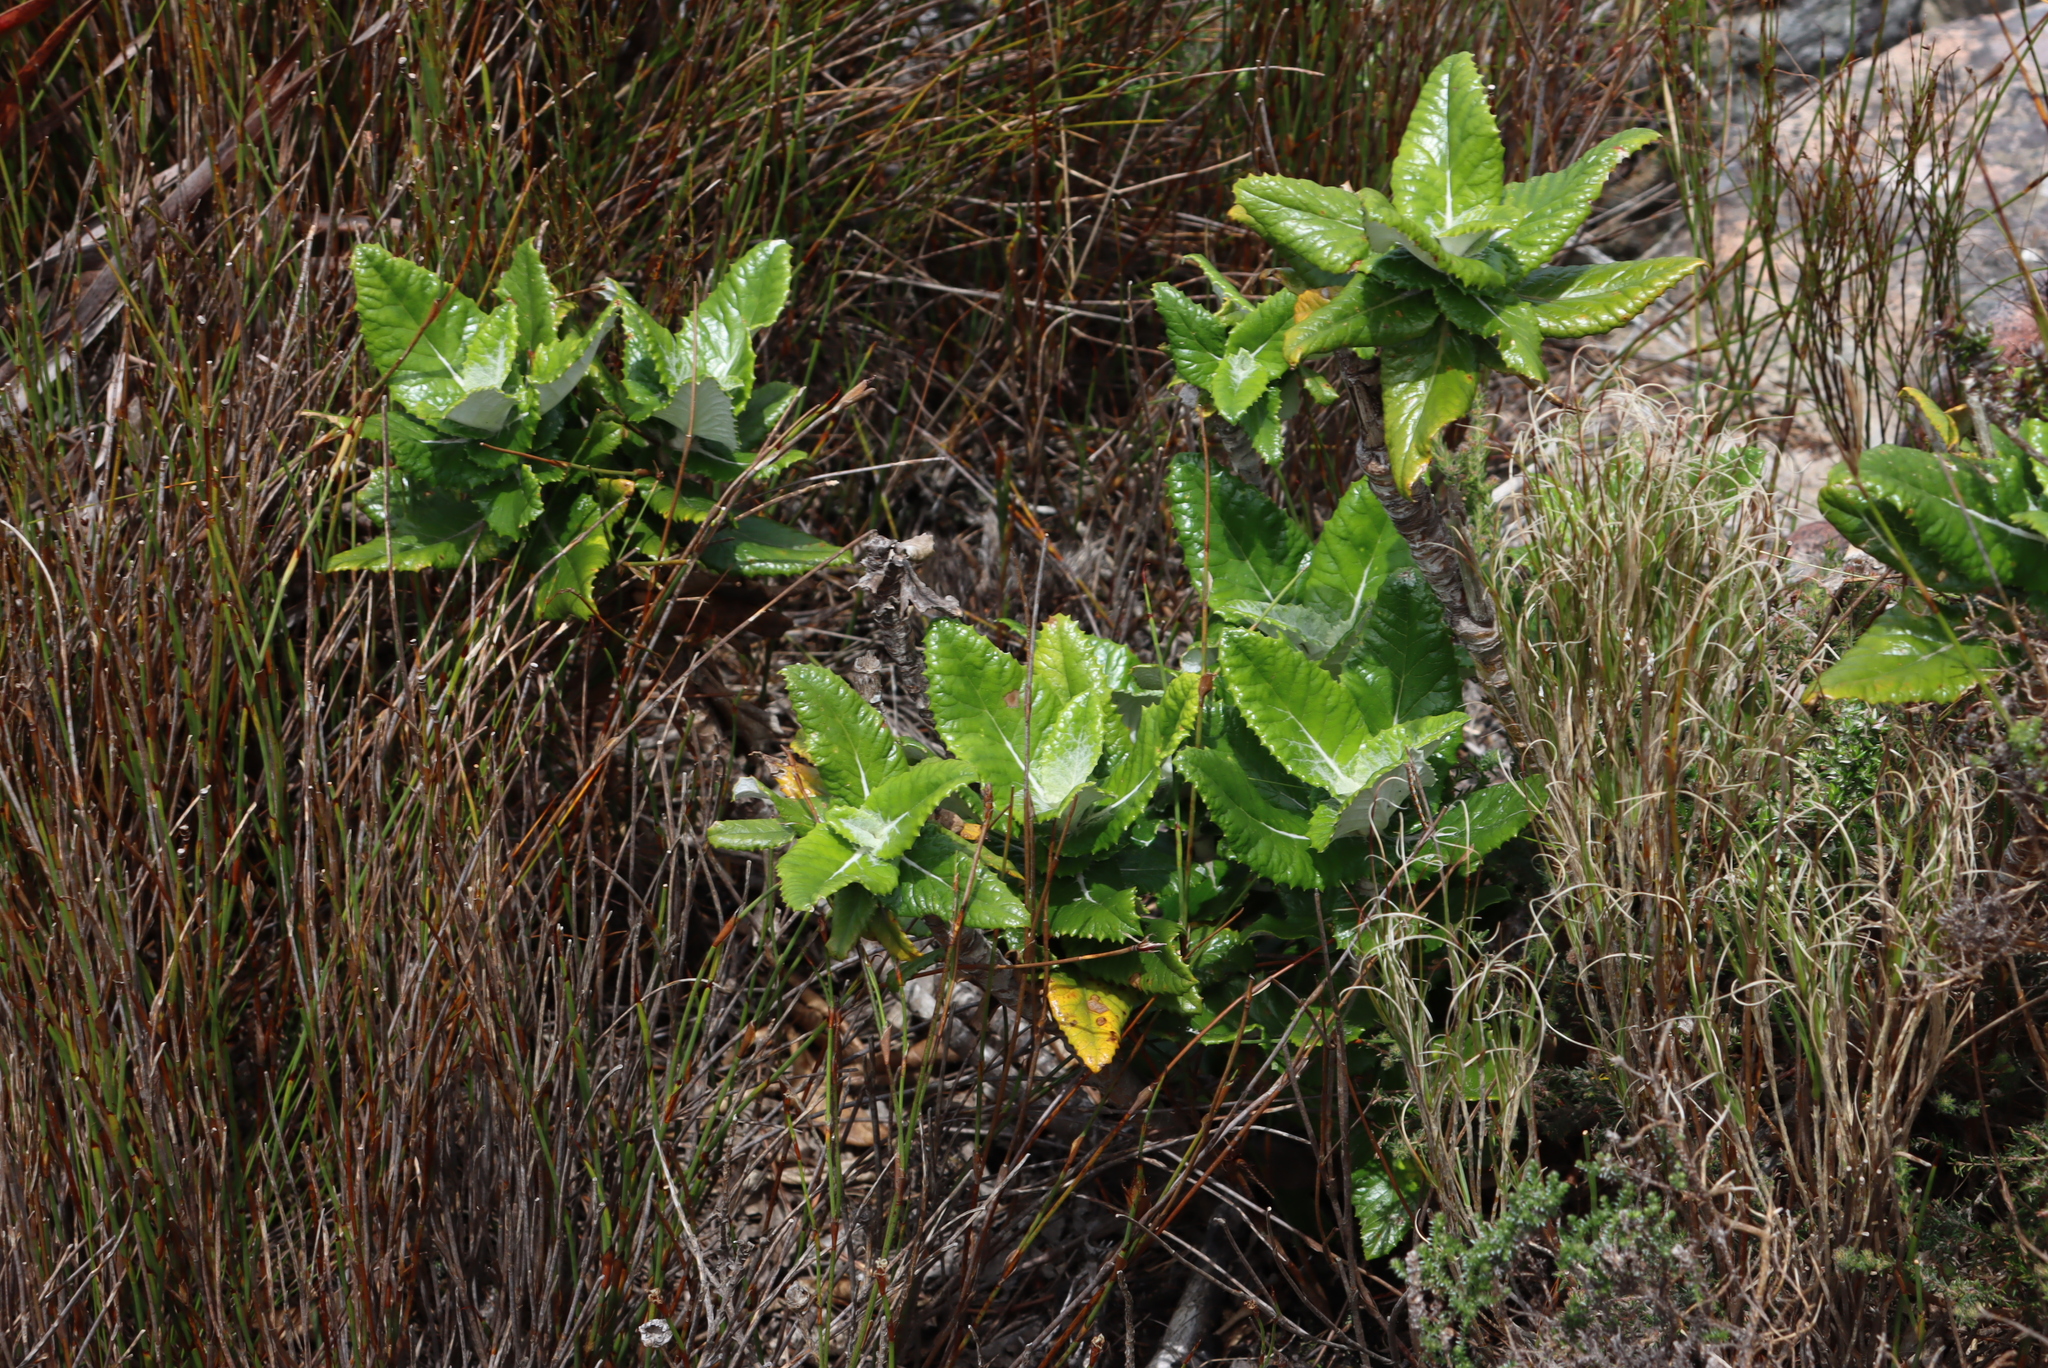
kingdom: Plantae
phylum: Tracheophyta
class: Magnoliopsida
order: Apiales
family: Apiaceae
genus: Hermas
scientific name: Hermas villosa
